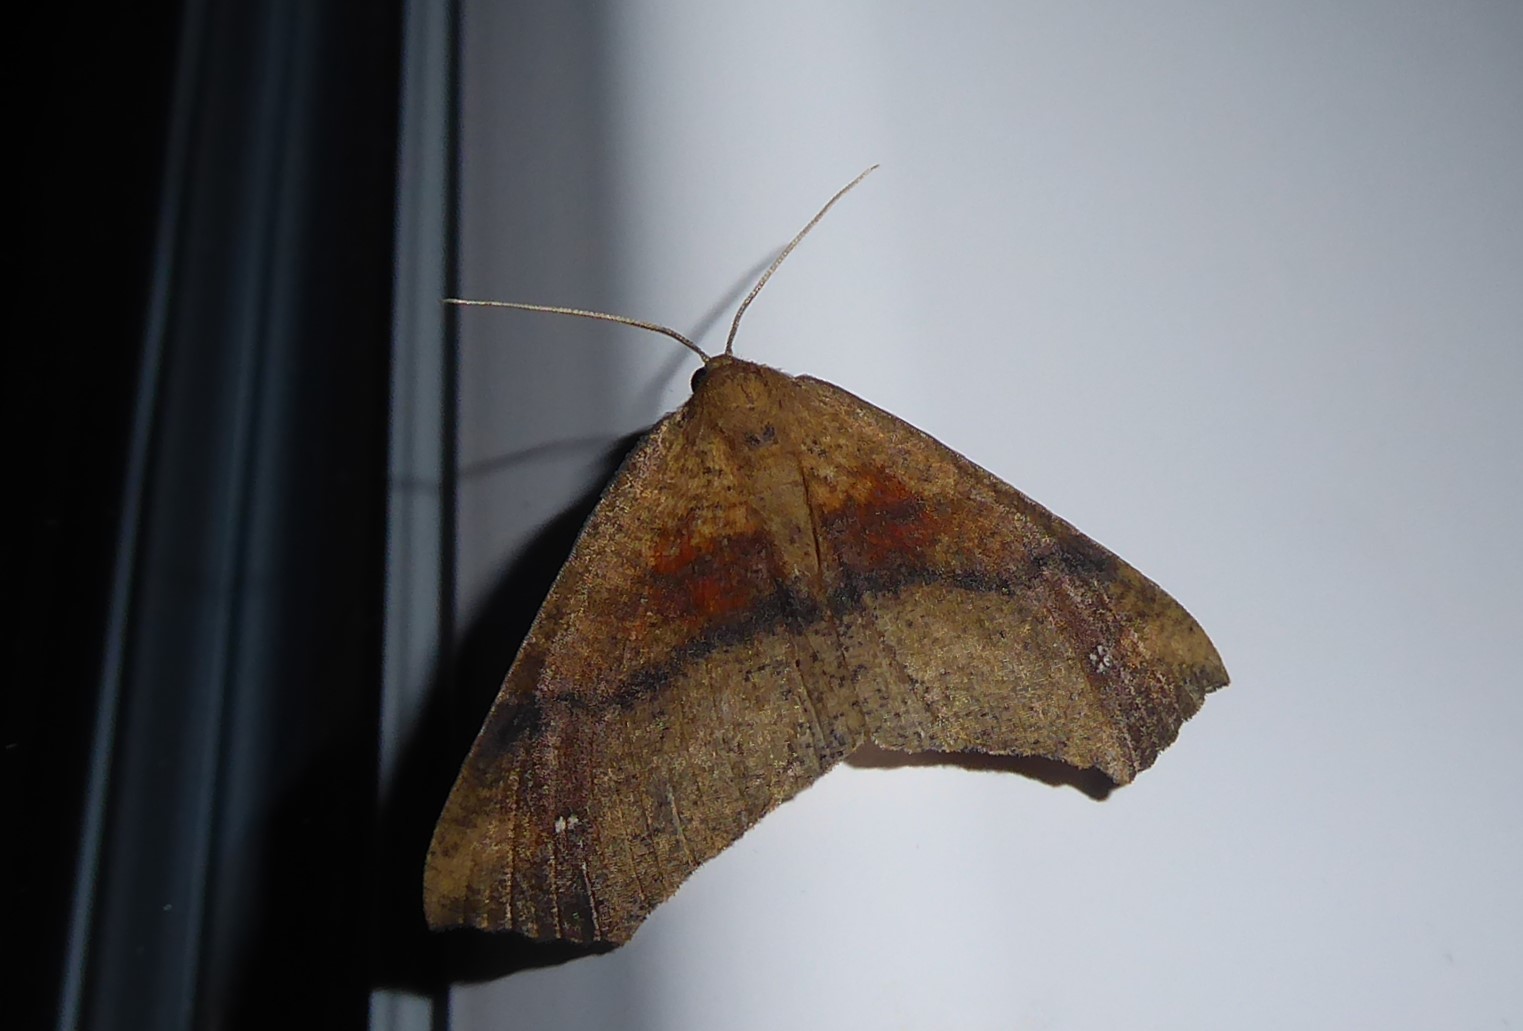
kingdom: Animalia
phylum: Arthropoda
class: Insecta
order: Lepidoptera
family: Geometridae
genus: Xyridacma
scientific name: Xyridacma ustaria
